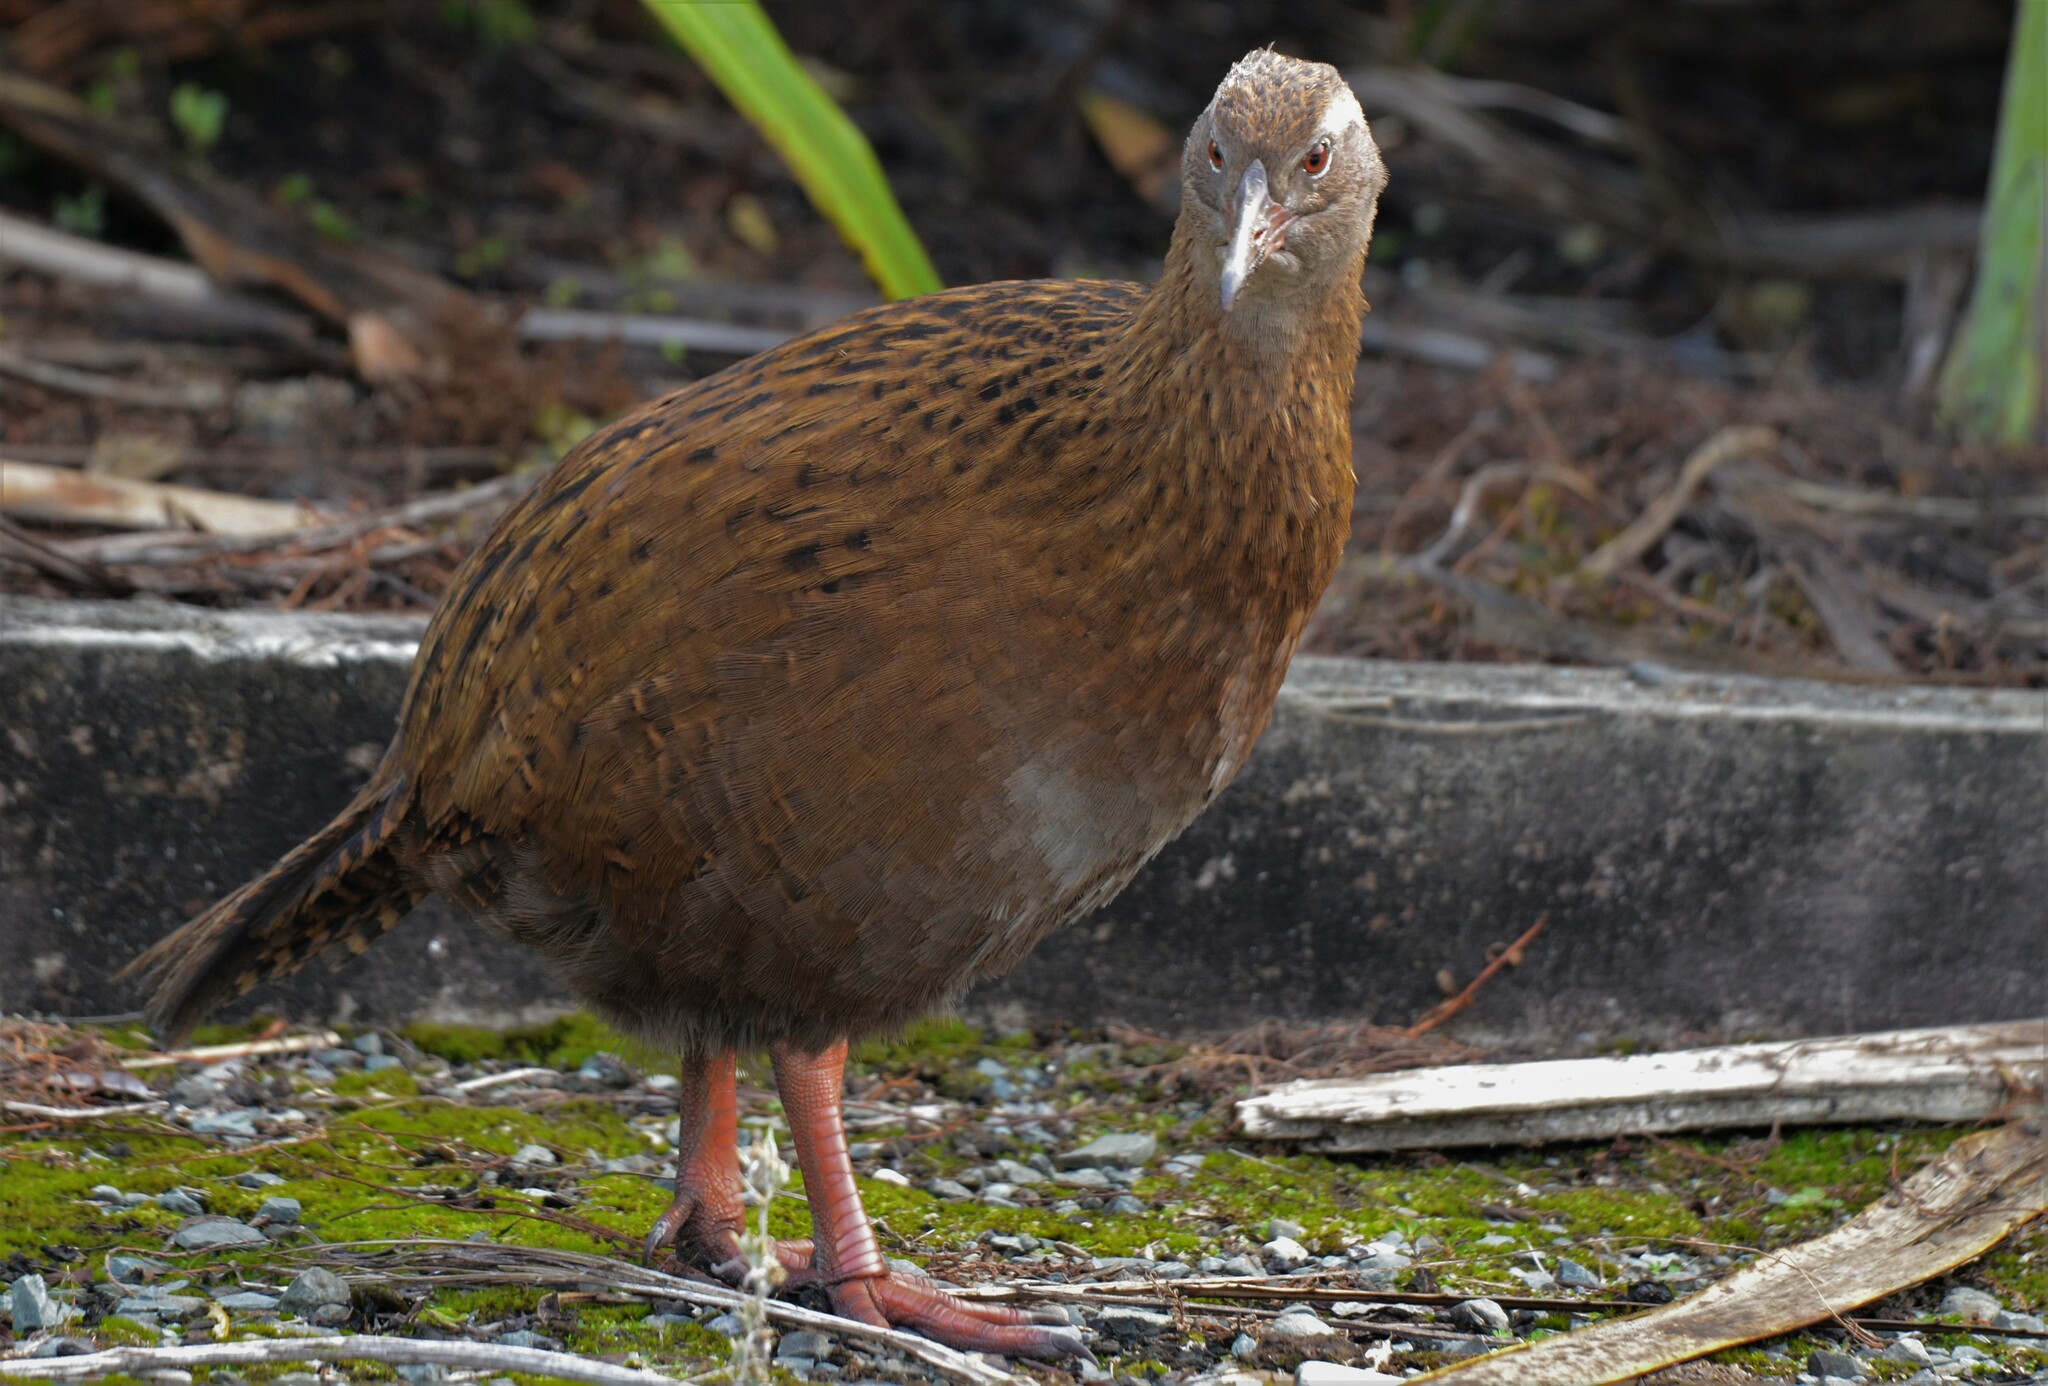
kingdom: Animalia
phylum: Chordata
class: Aves
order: Gruiformes
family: Rallidae
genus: Gallirallus
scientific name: Gallirallus australis
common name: Weka
